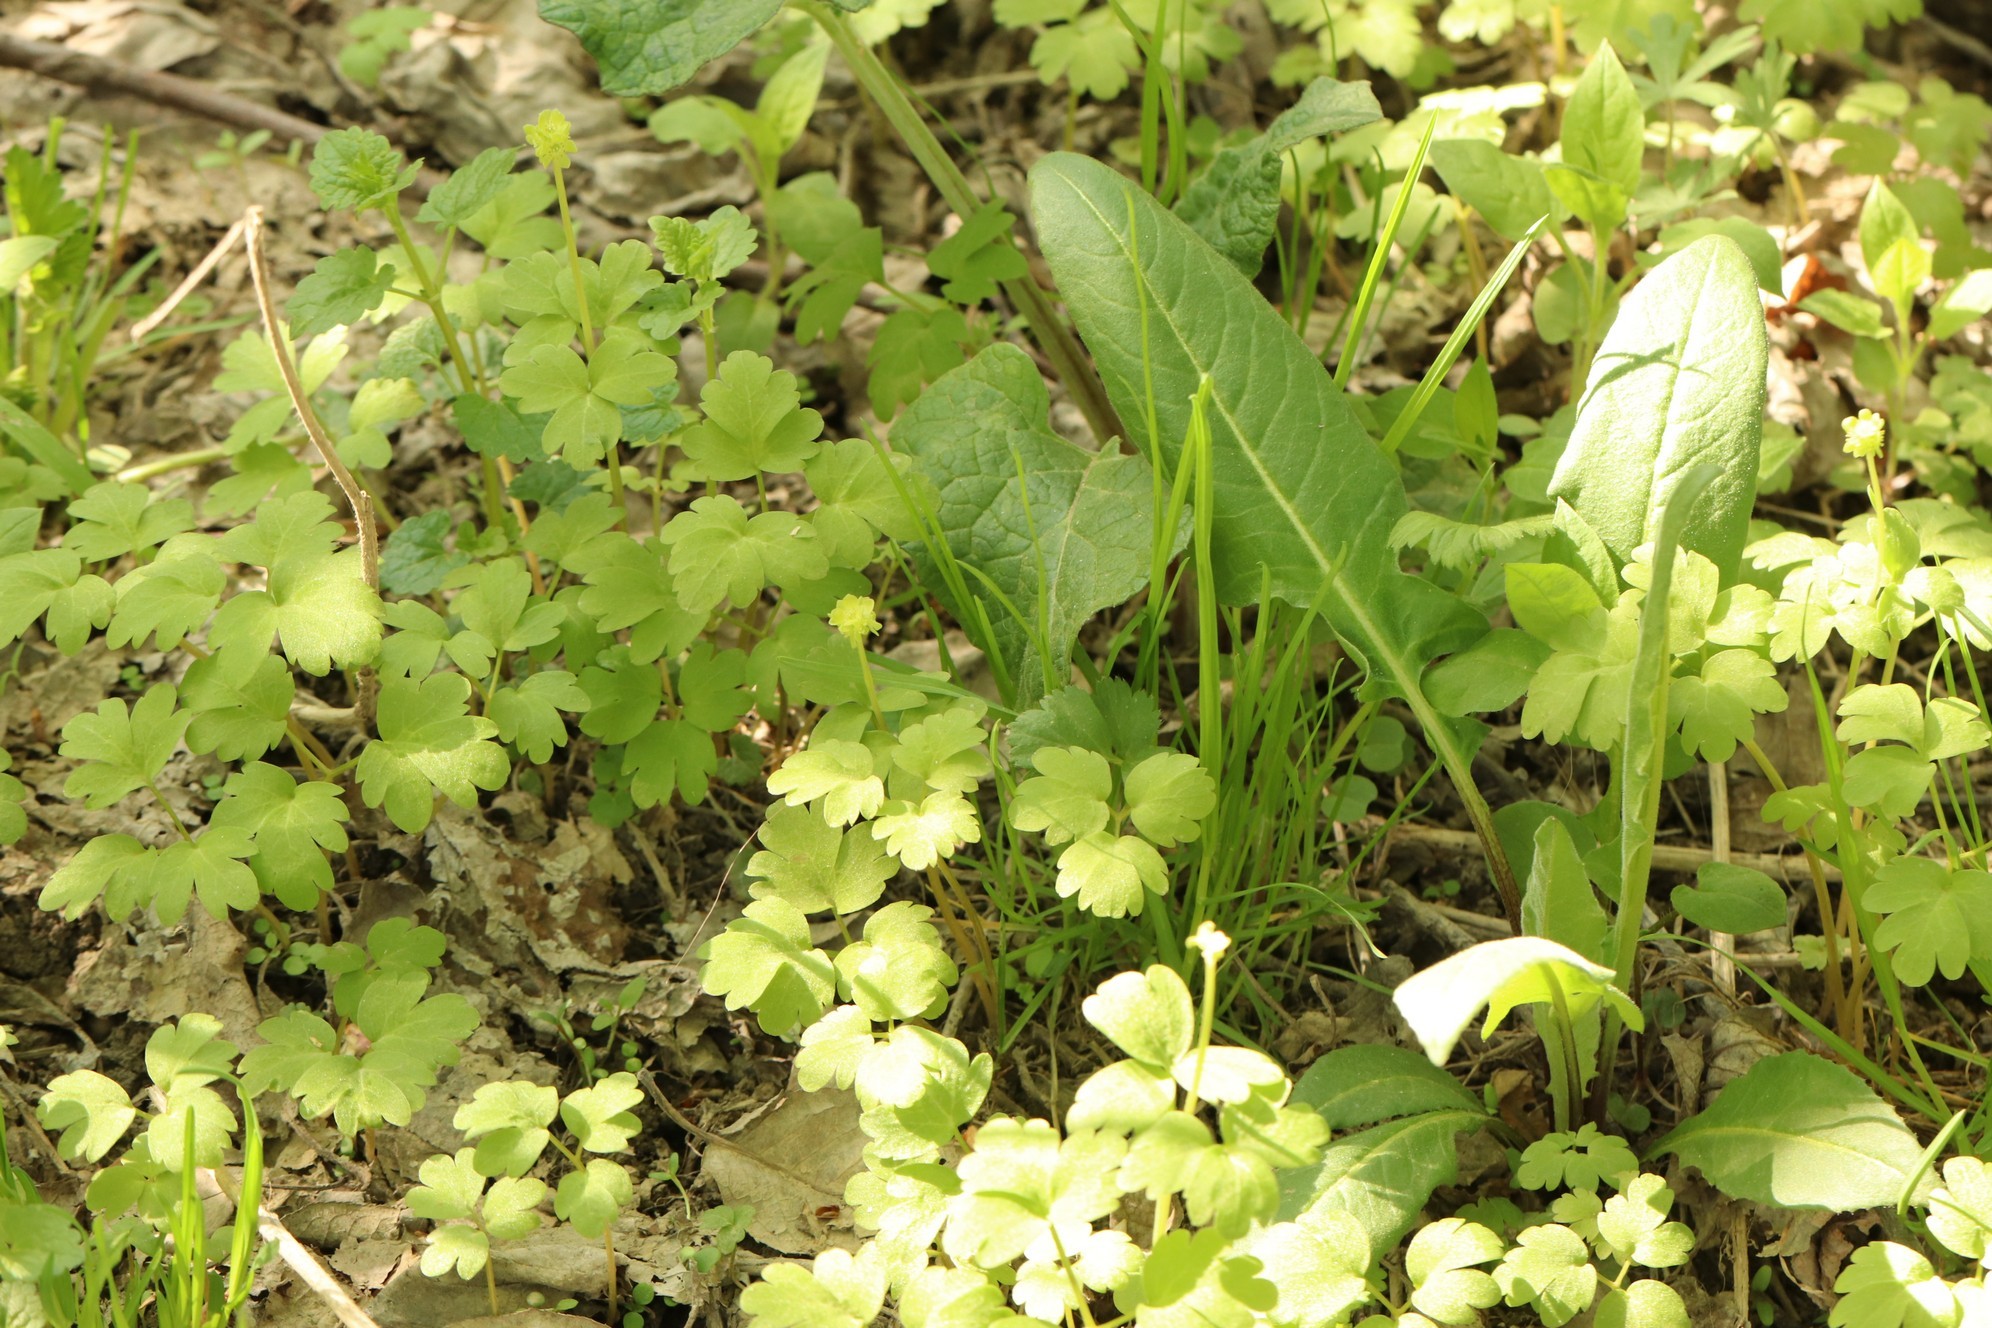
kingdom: Plantae
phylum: Tracheophyta
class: Magnoliopsida
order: Dipsacales
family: Viburnaceae
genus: Adoxa
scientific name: Adoxa moschatellina
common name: Moschatel
